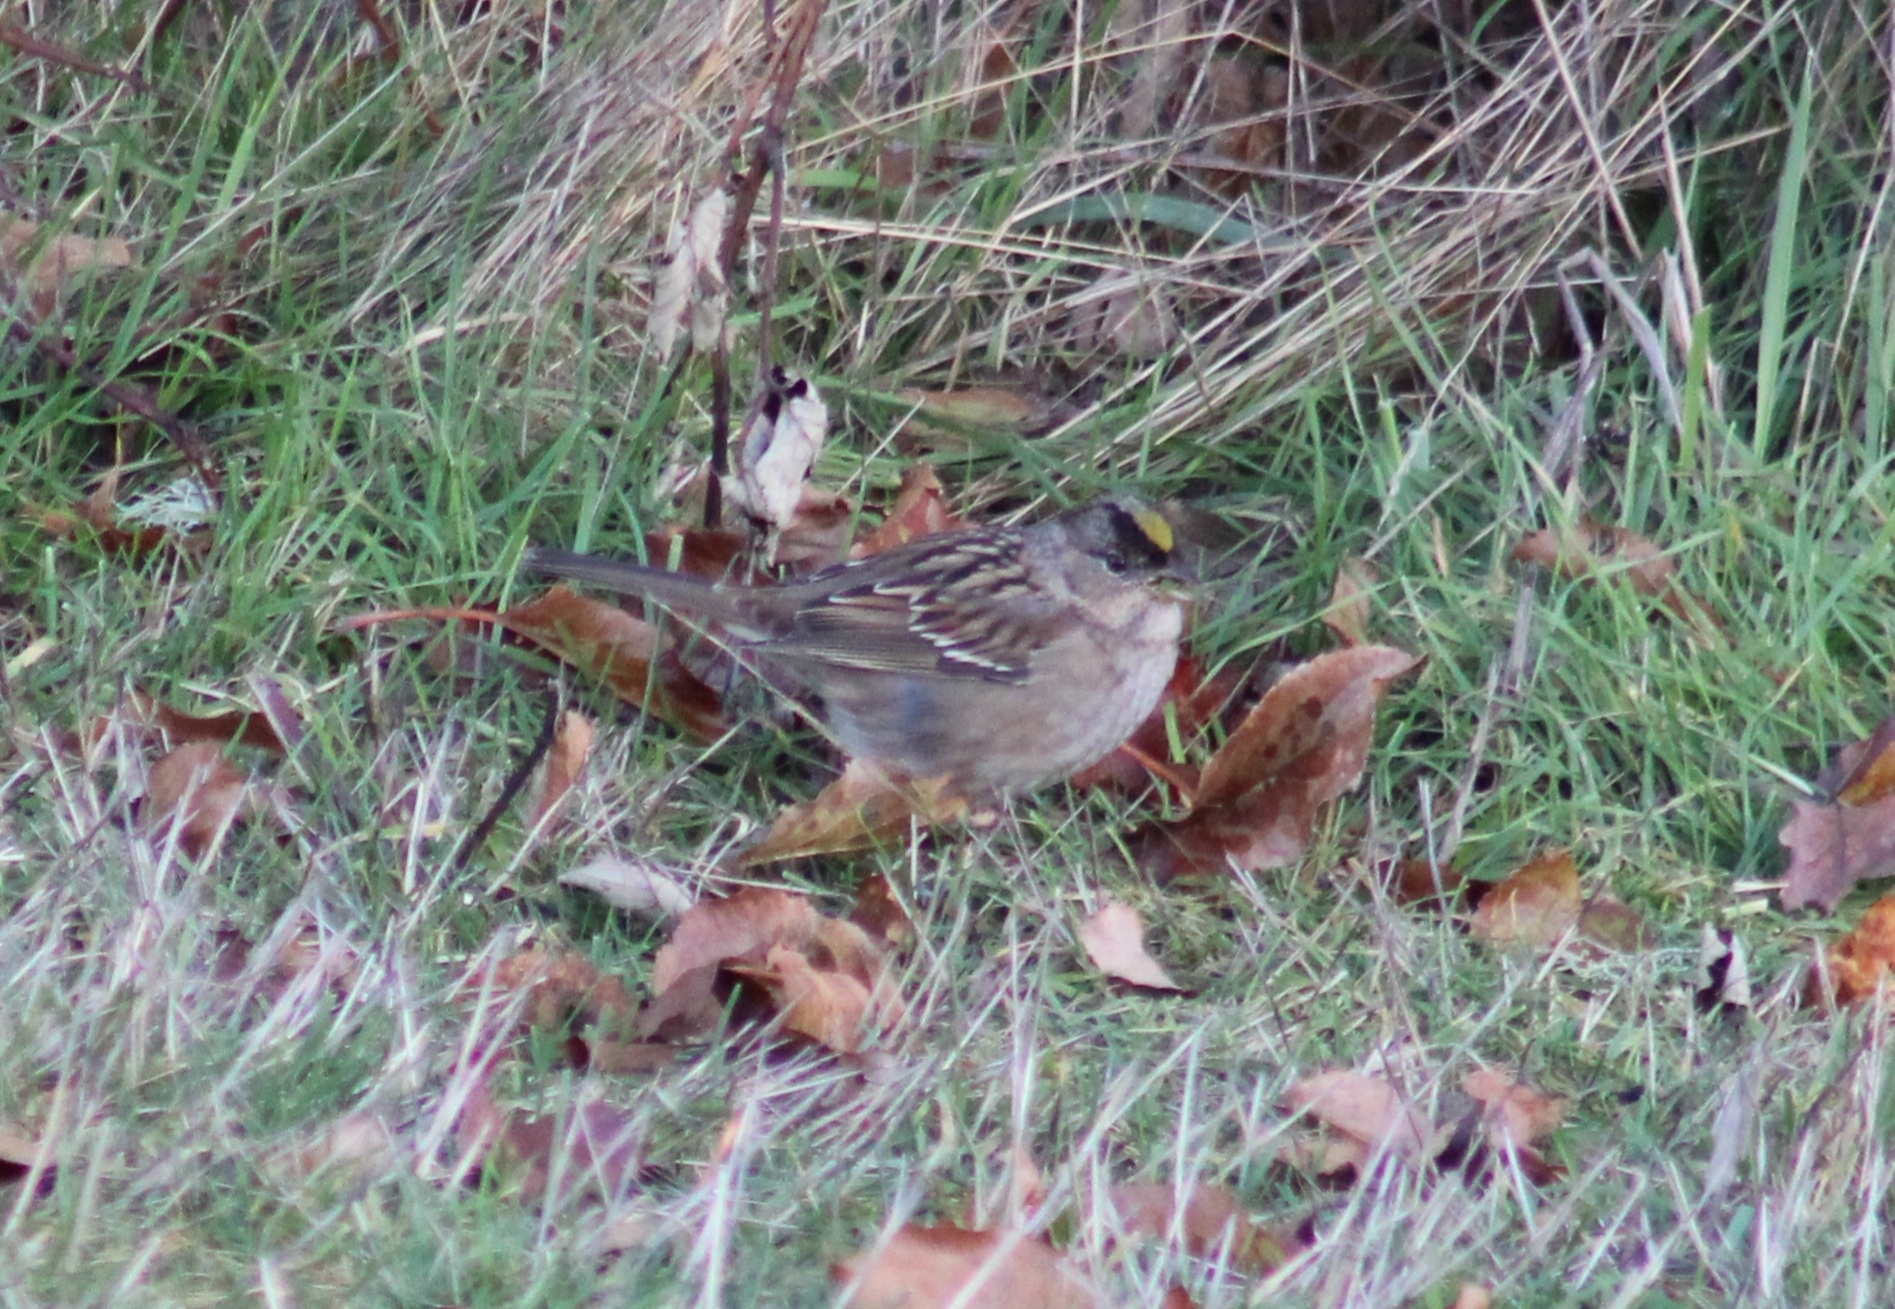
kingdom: Animalia
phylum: Chordata
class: Aves
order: Passeriformes
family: Passerellidae
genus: Zonotrichia
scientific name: Zonotrichia atricapilla
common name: Golden-crowned sparrow
